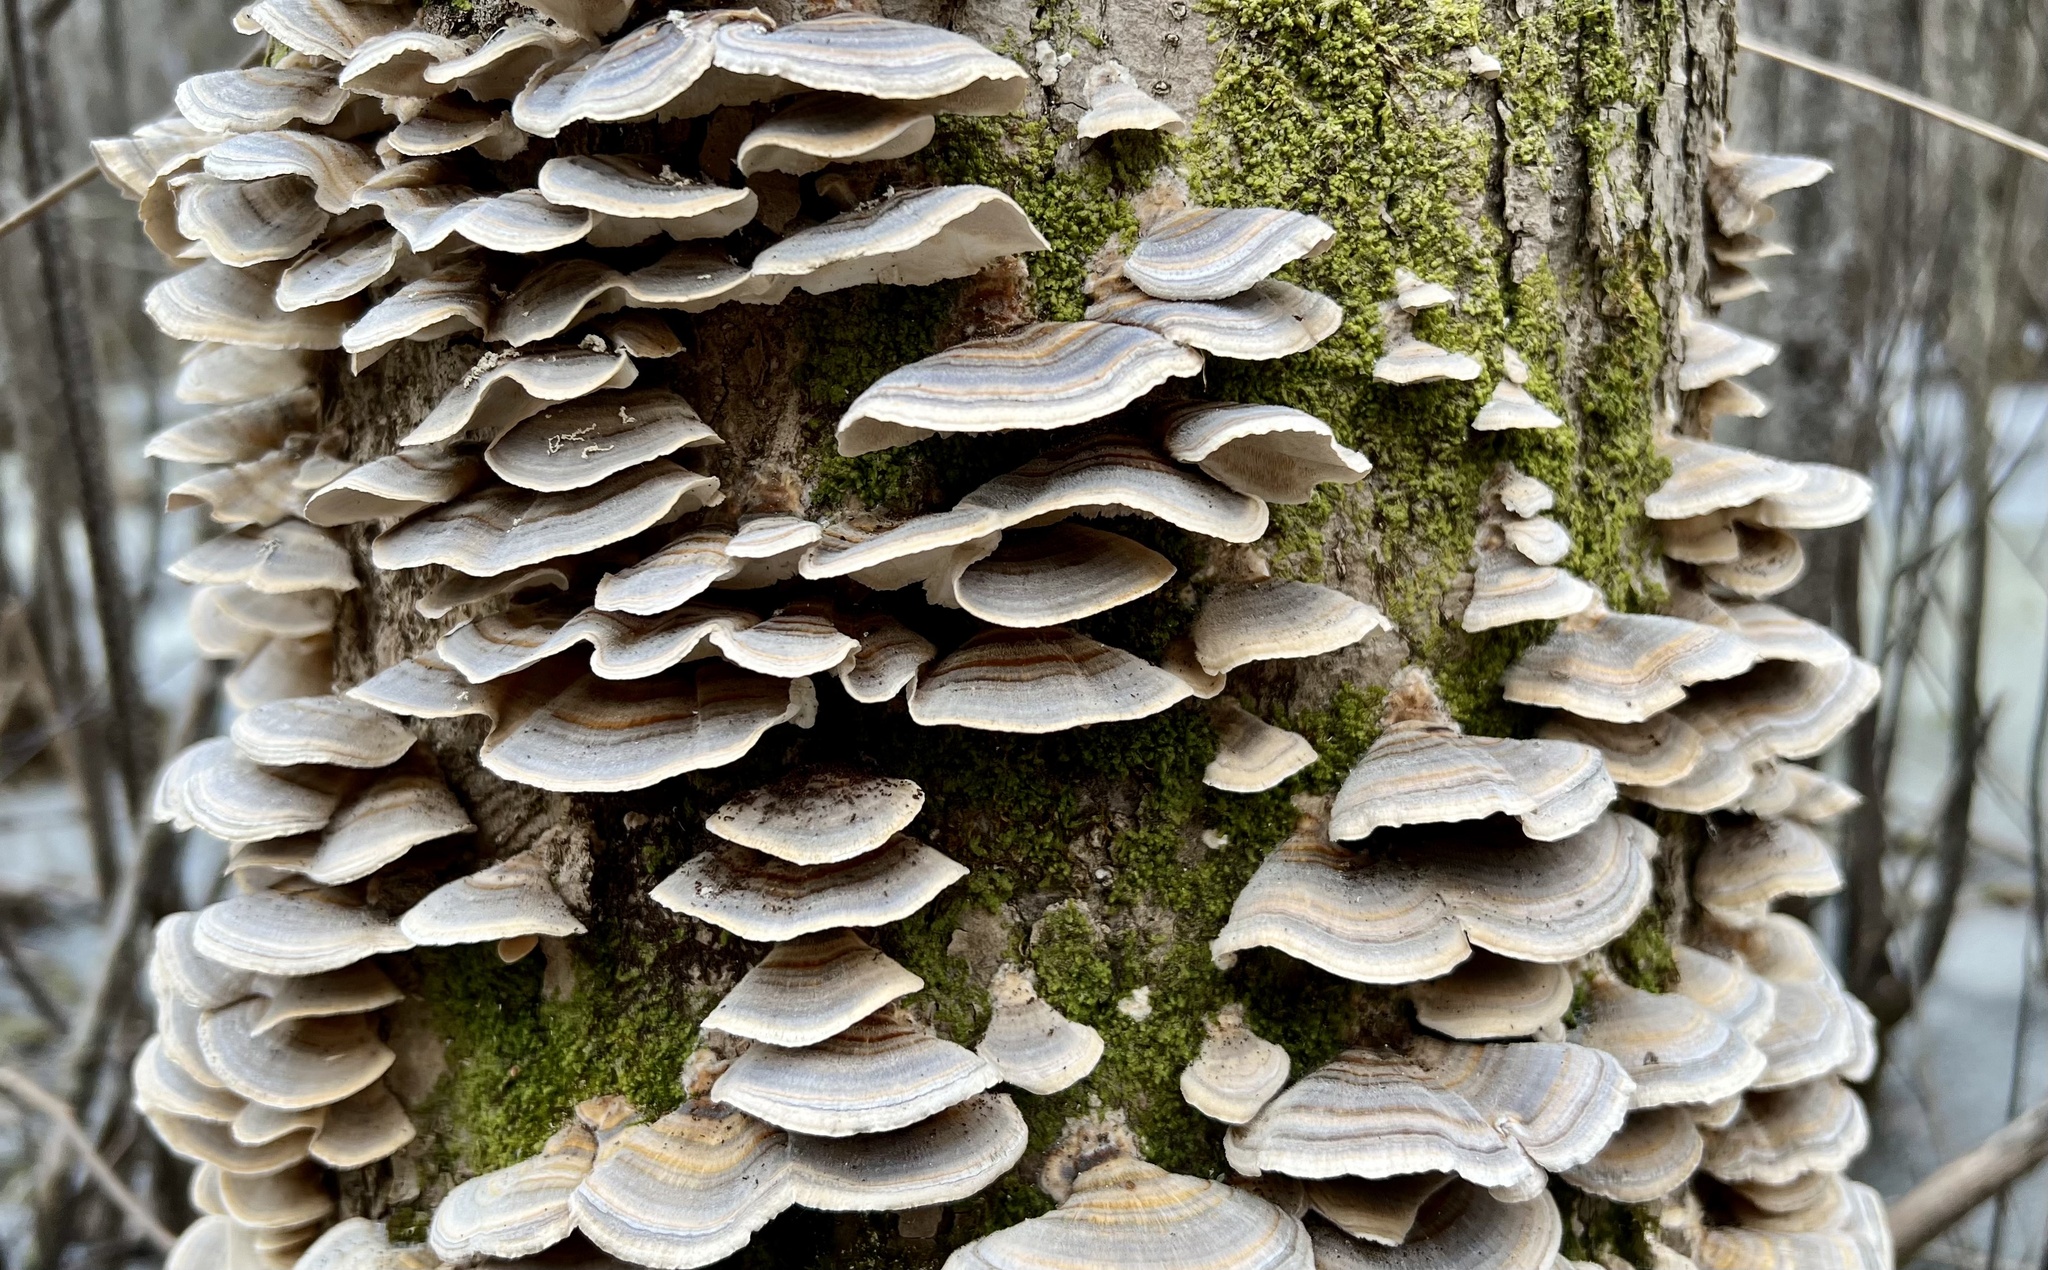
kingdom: Fungi
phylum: Basidiomycota
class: Agaricomycetes
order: Polyporales
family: Polyporaceae
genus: Trametes
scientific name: Trametes versicolor
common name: Turkeytail
